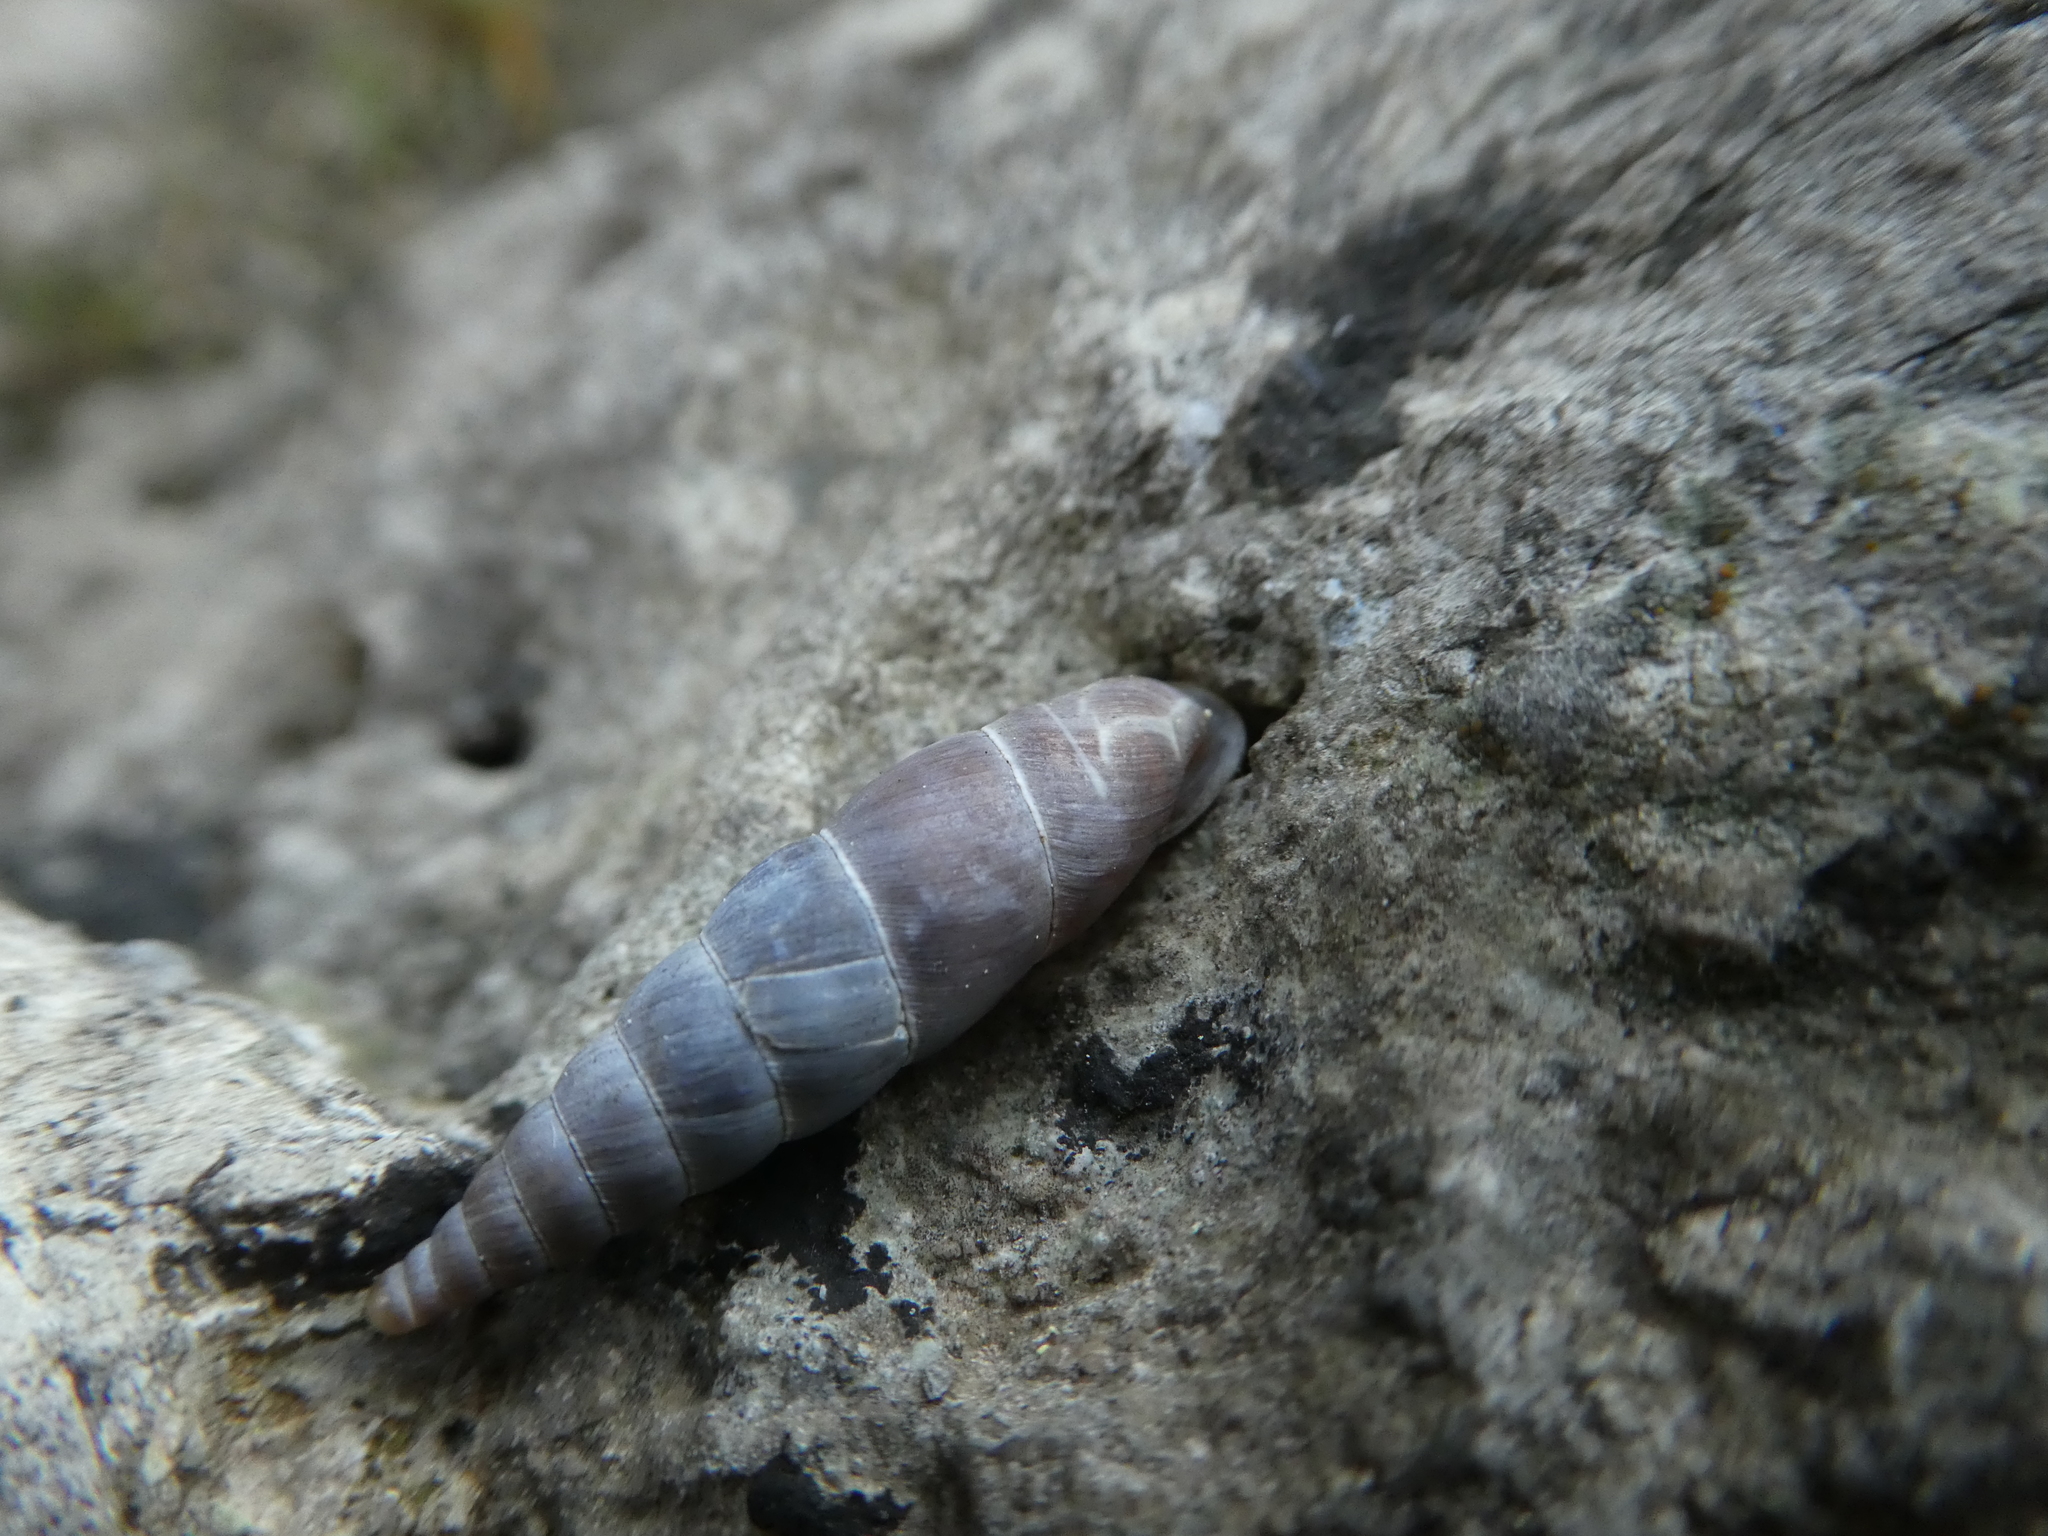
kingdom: Animalia
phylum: Mollusca
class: Gastropoda
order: Stylommatophora
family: Clausiliidae
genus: Herilla
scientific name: Herilla bosniensis
